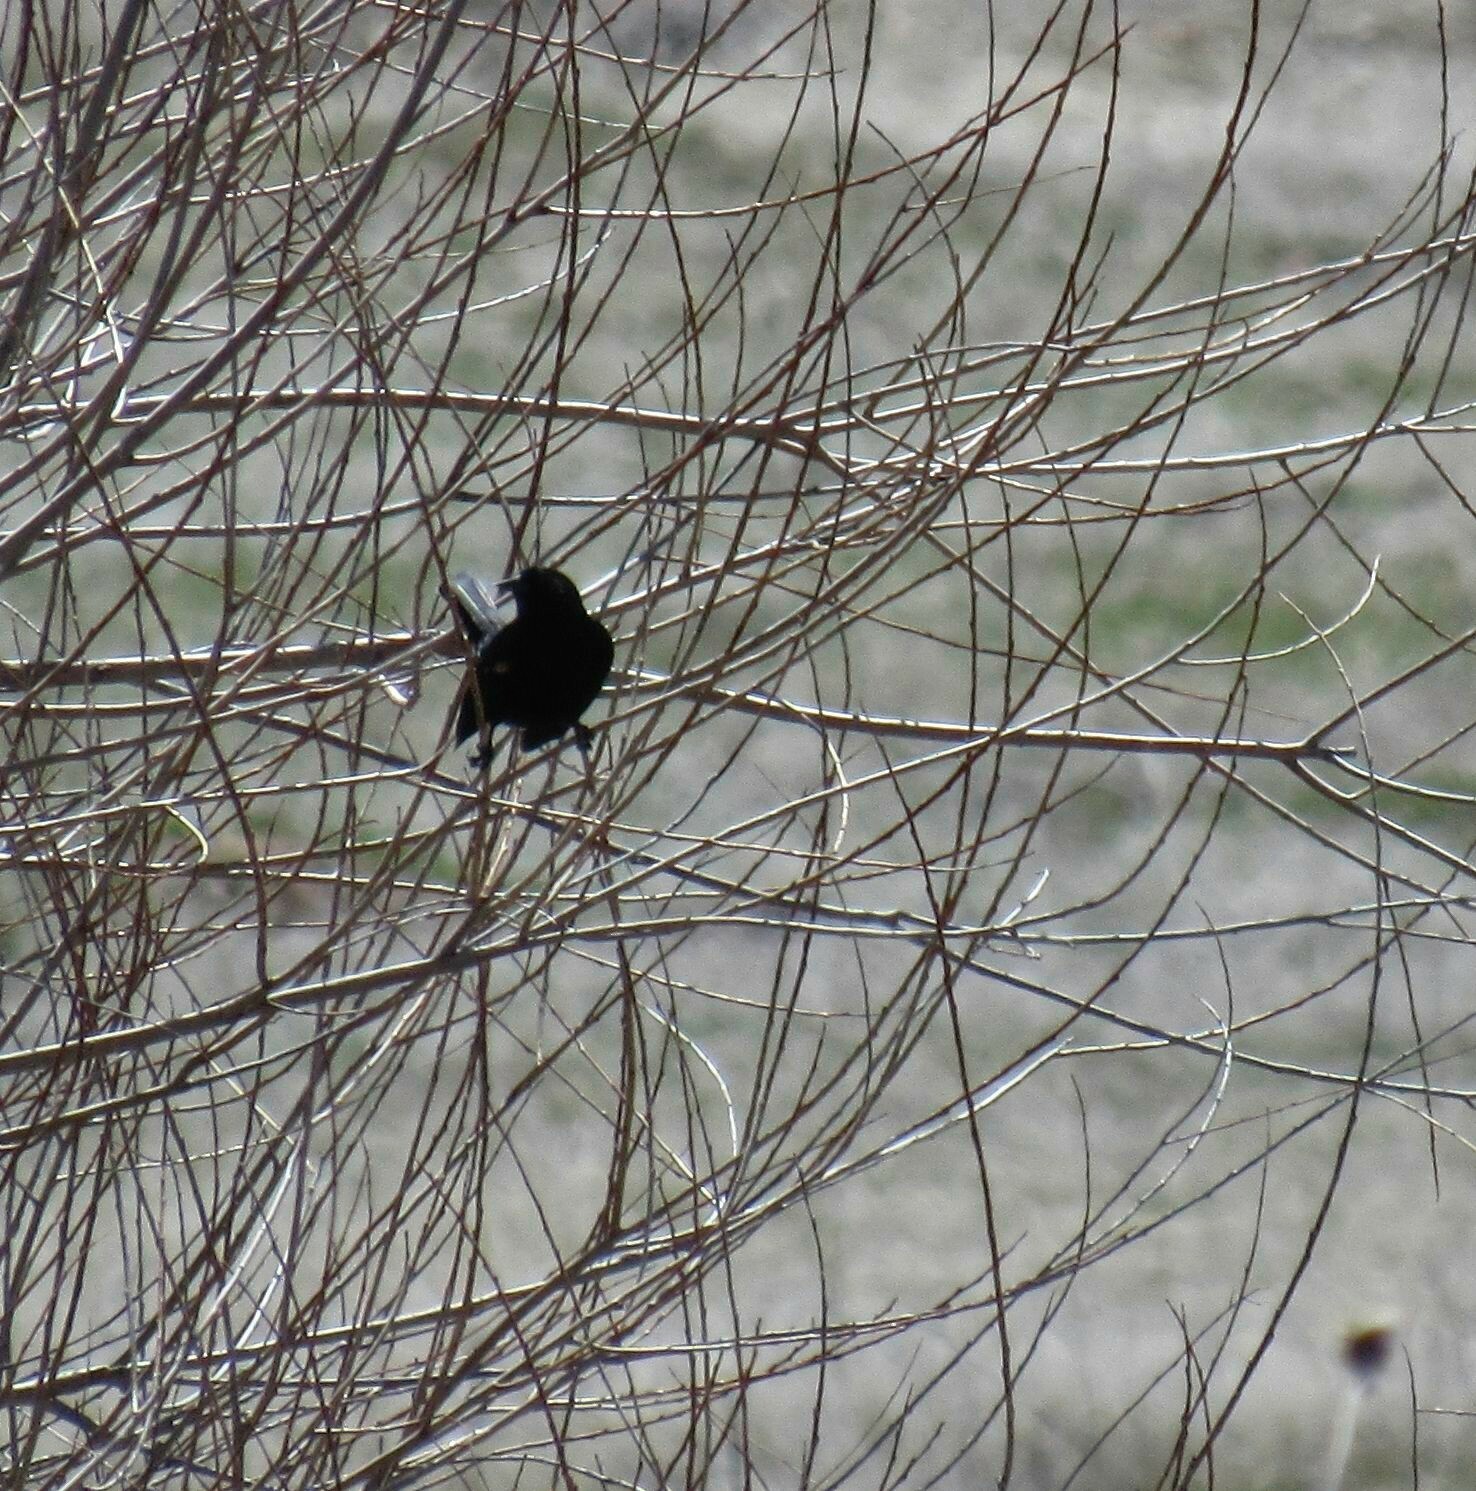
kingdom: Animalia
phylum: Chordata
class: Aves
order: Passeriformes
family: Icteridae
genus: Agelaius
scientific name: Agelaius phoeniceus
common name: Red-winged blackbird
